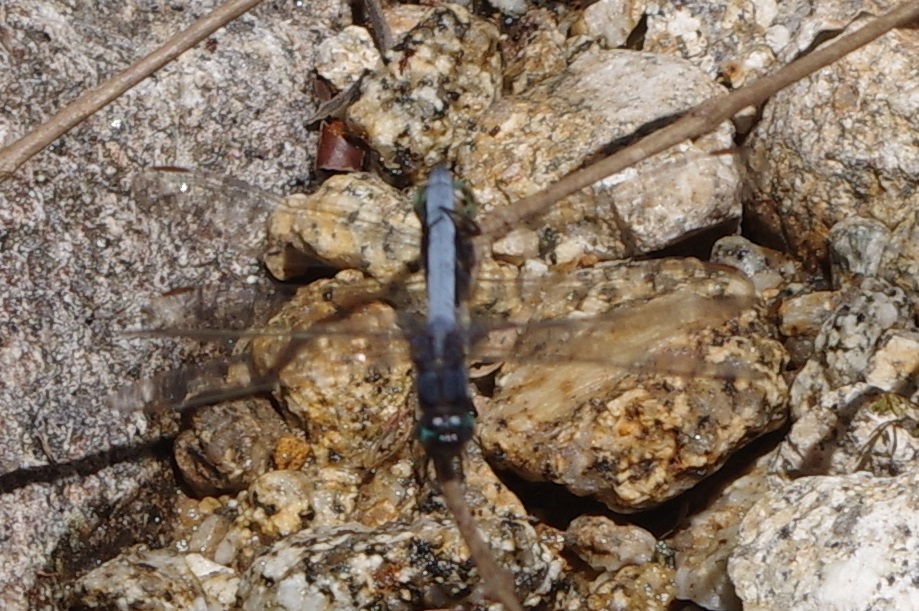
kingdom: Animalia
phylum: Arthropoda
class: Insecta
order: Odonata
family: Libellulidae
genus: Orthetrum
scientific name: Orthetrum glaucum
